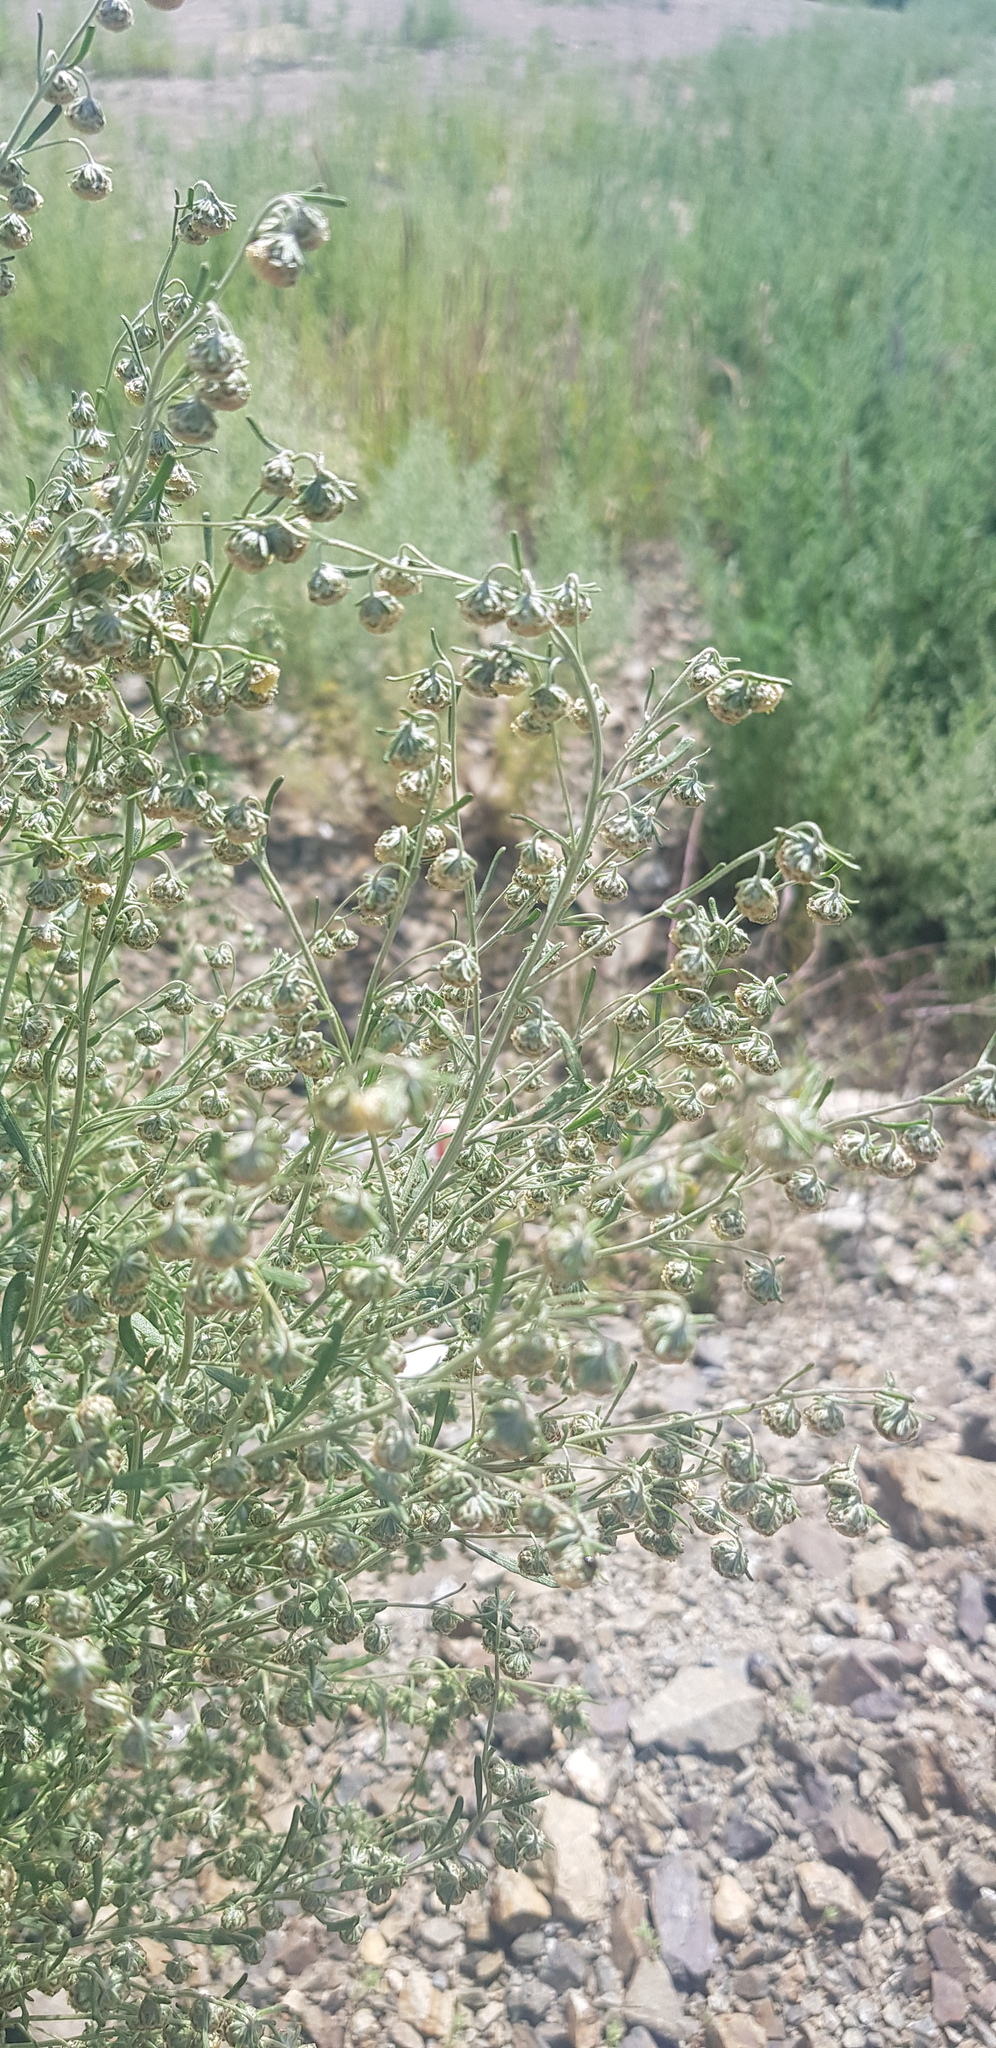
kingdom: Plantae
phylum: Tracheophyta
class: Magnoliopsida
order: Asterales
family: Asteraceae
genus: Artemisia
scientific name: Artemisia macrocephala
